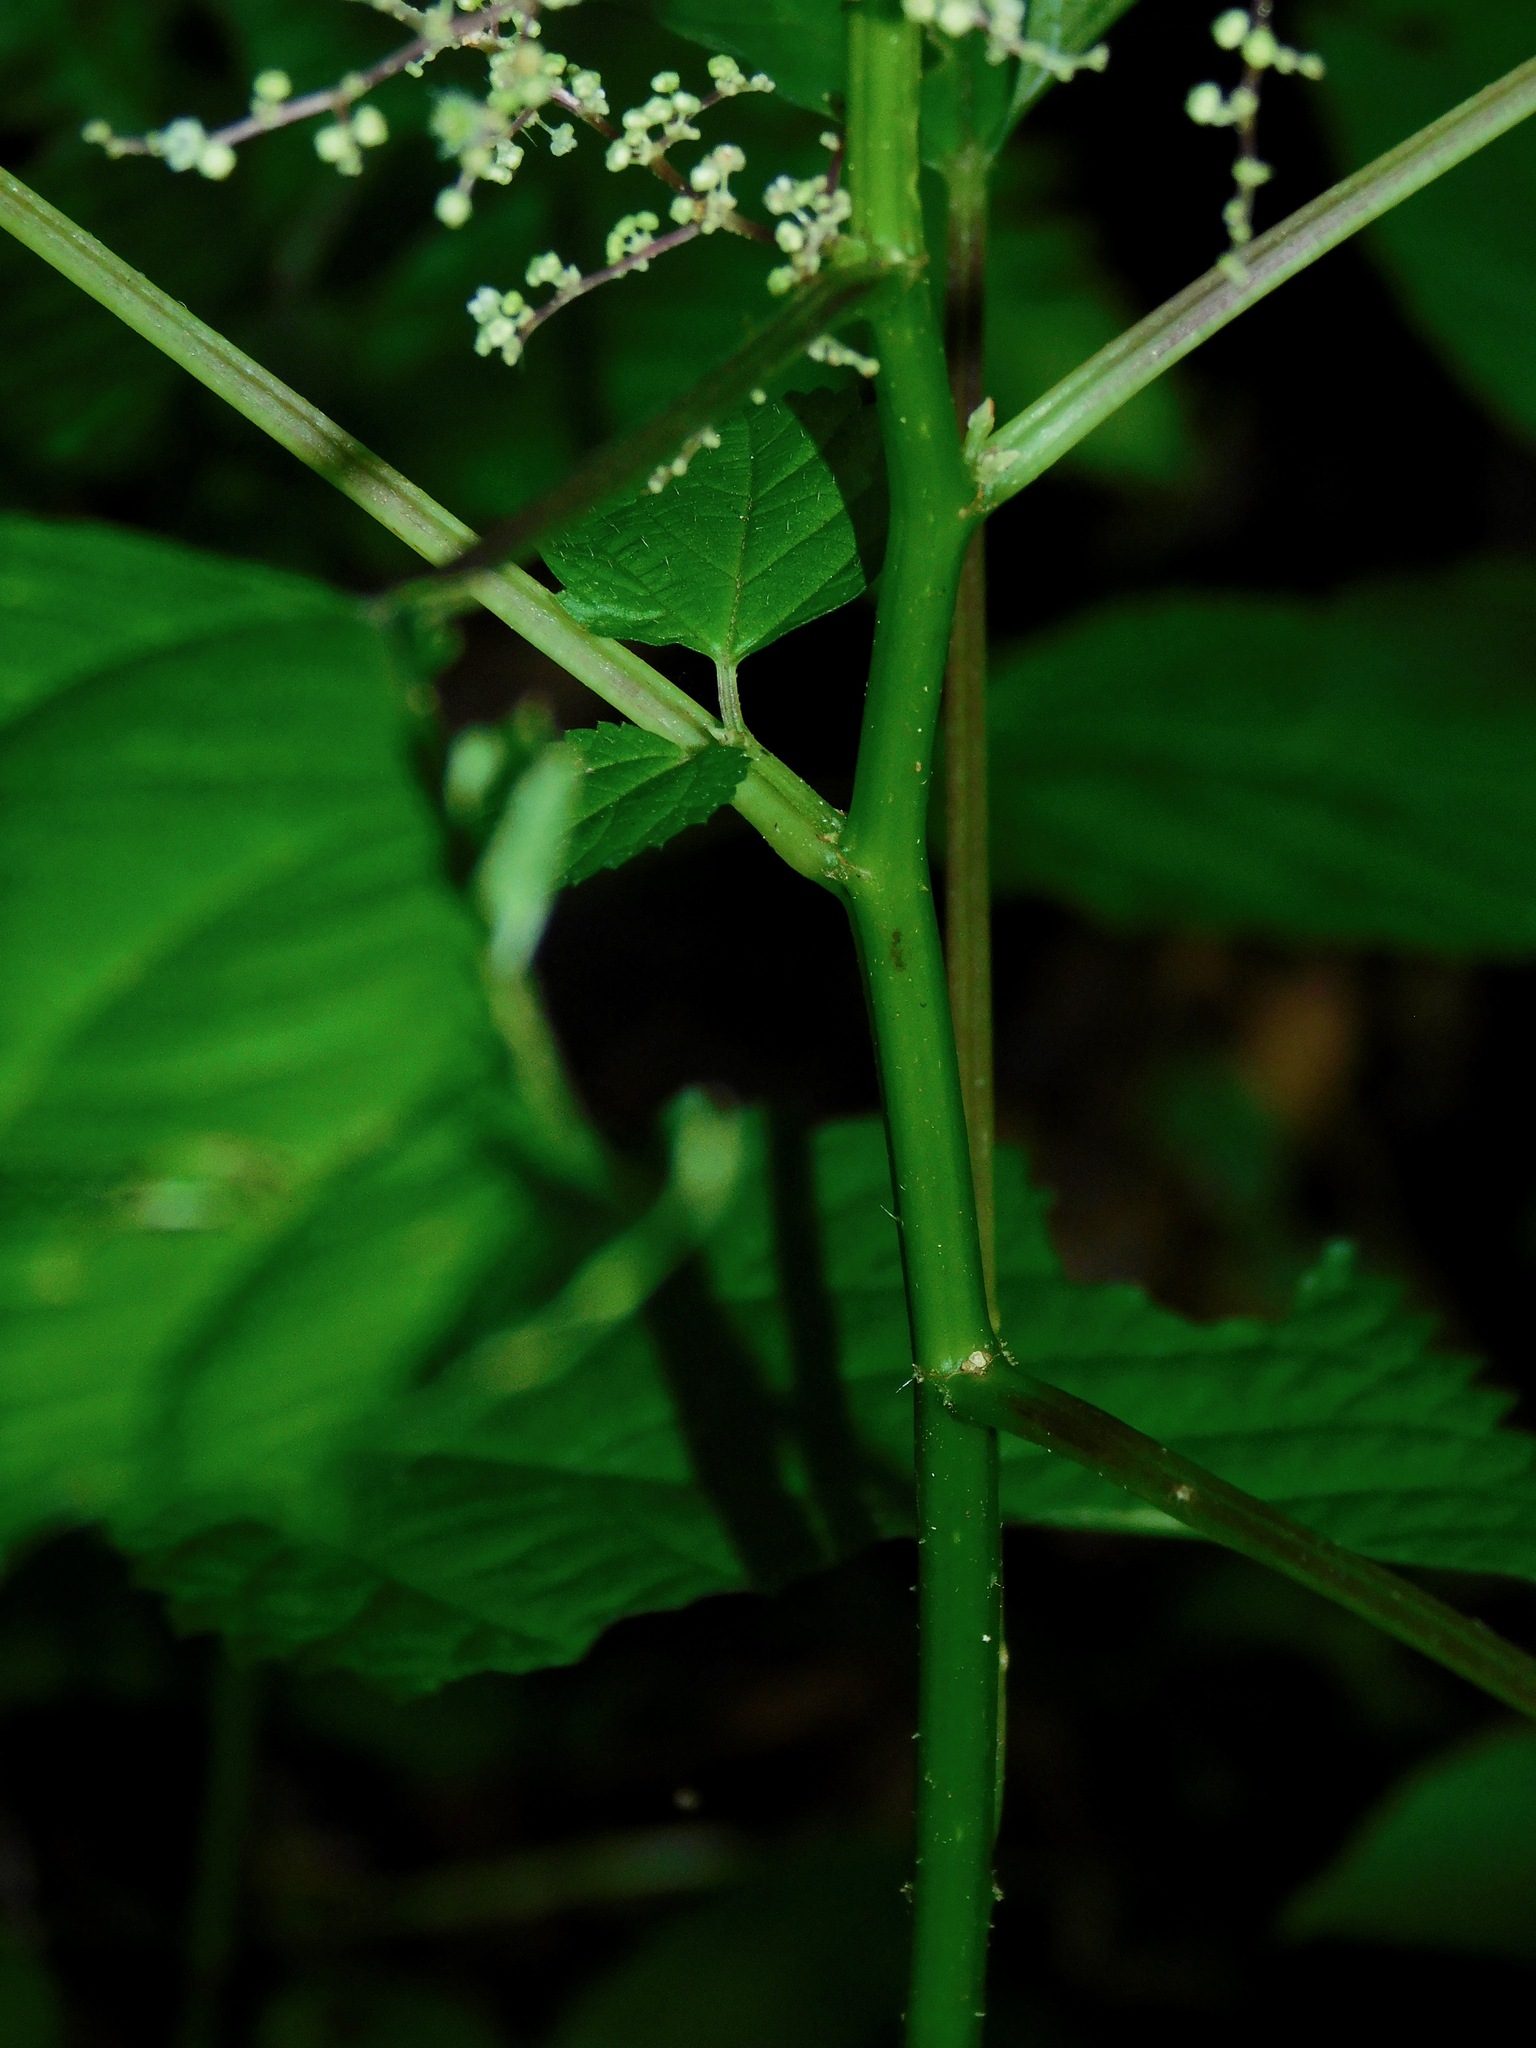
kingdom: Plantae
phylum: Tracheophyta
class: Magnoliopsida
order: Rosales
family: Urticaceae
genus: Laportea
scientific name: Laportea canadensis
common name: Canada nettle
